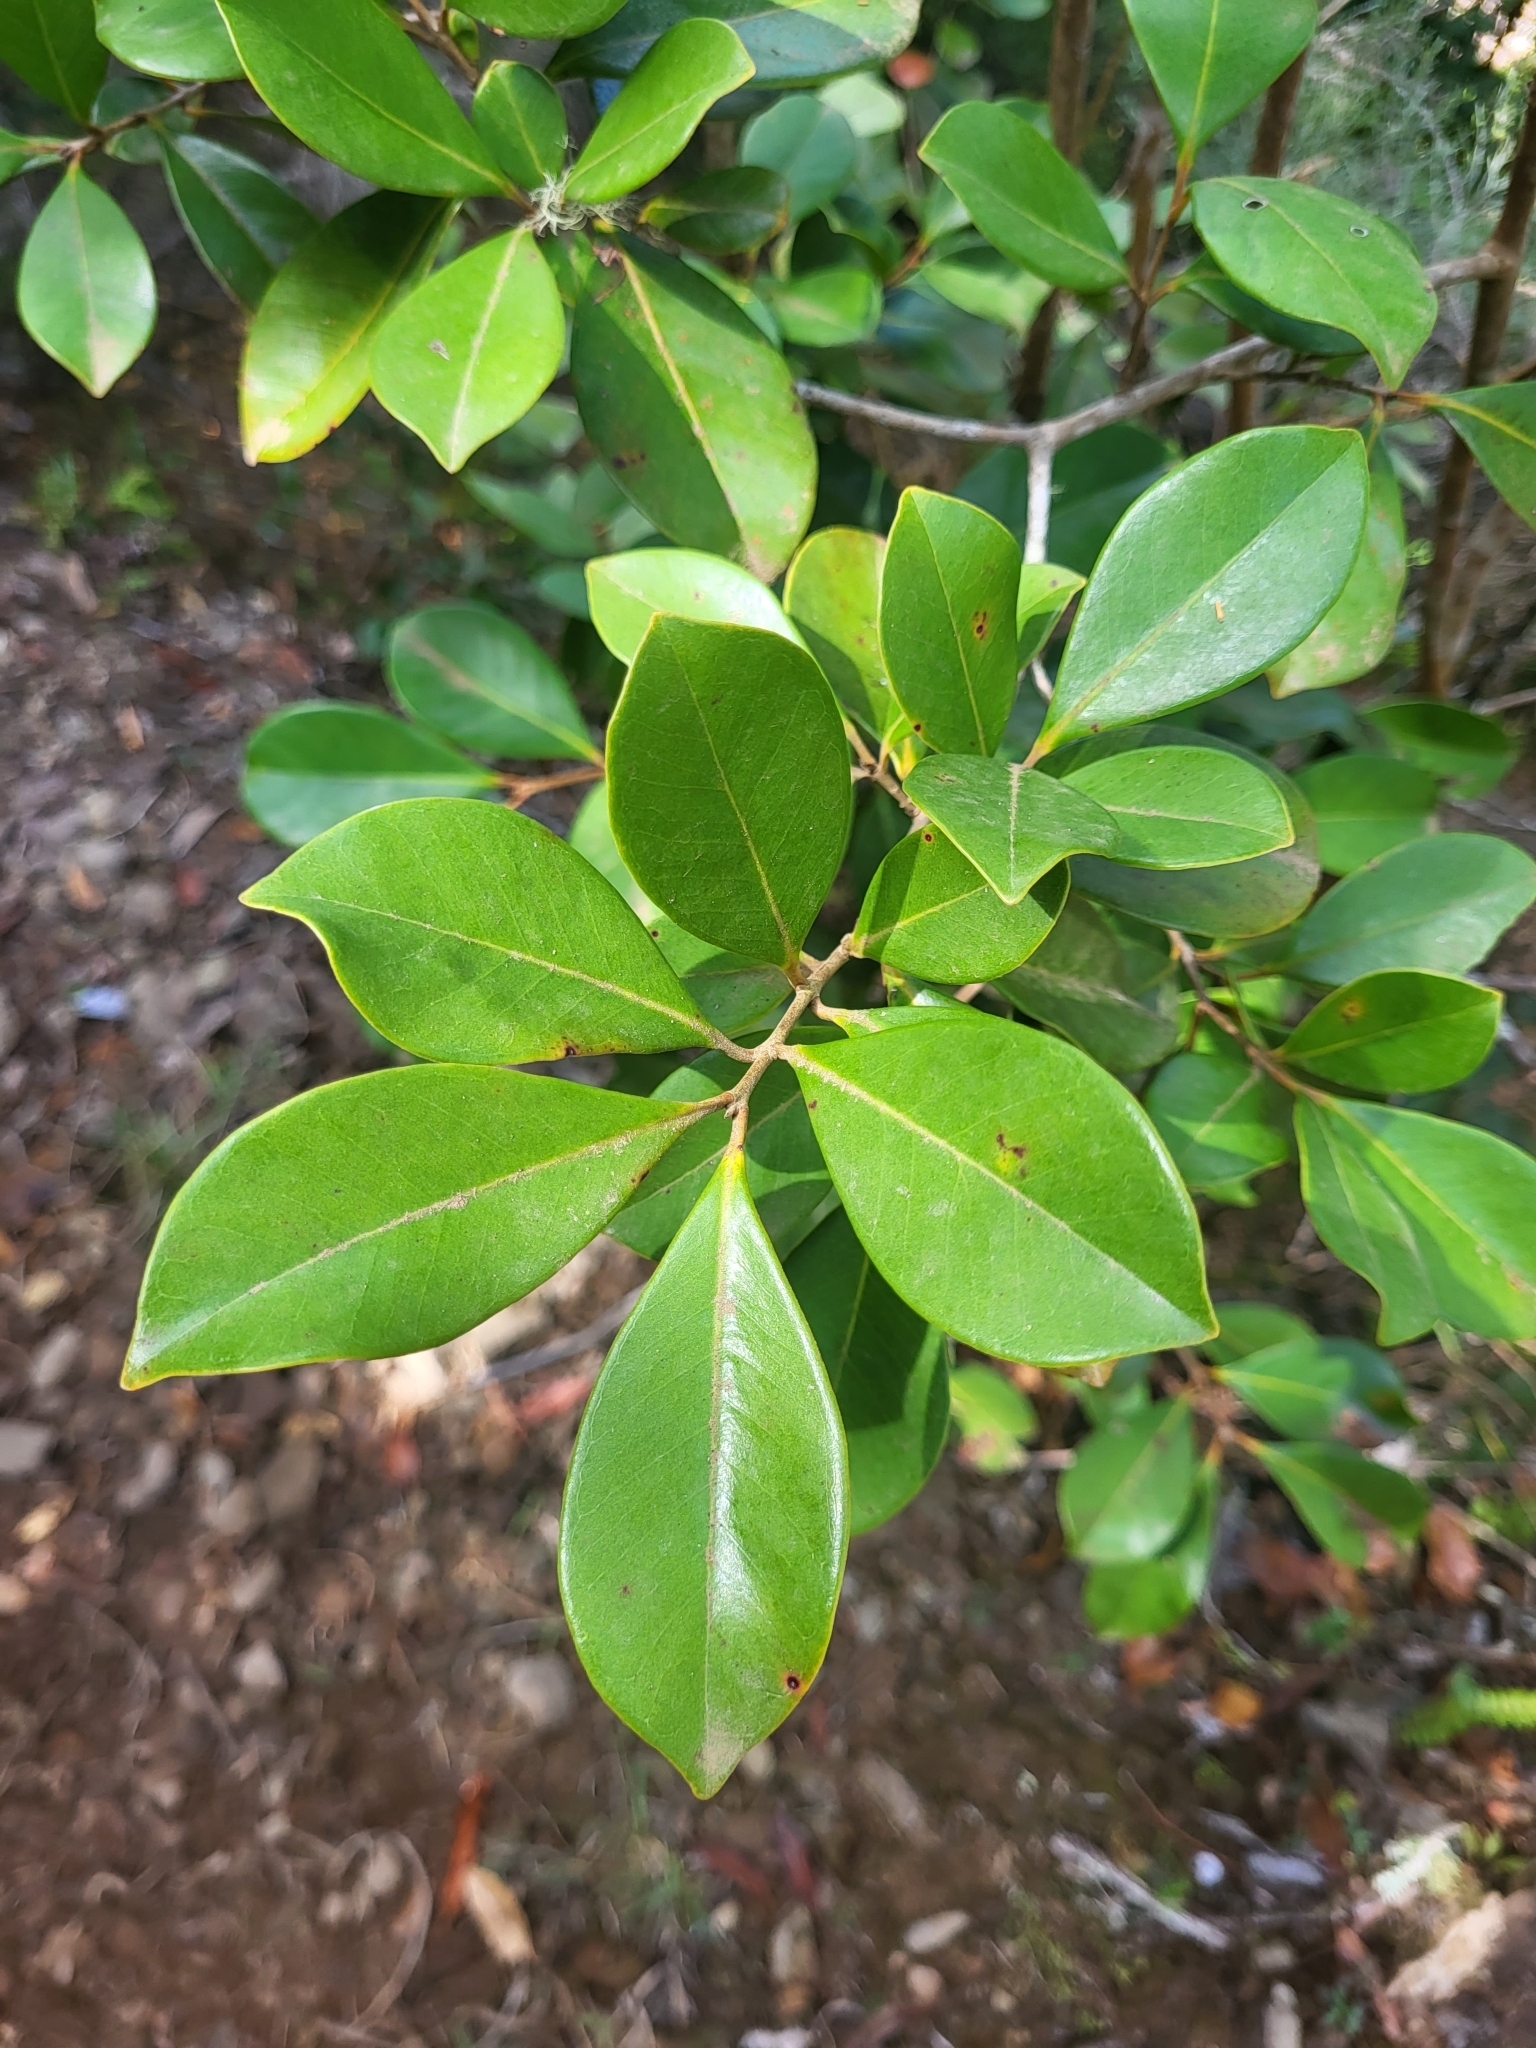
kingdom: Plantae
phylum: Tracheophyta
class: Magnoliopsida
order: Myrtales
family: Myrtaceae
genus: Psidium
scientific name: Psidium cattleianum
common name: Strawberry guava
